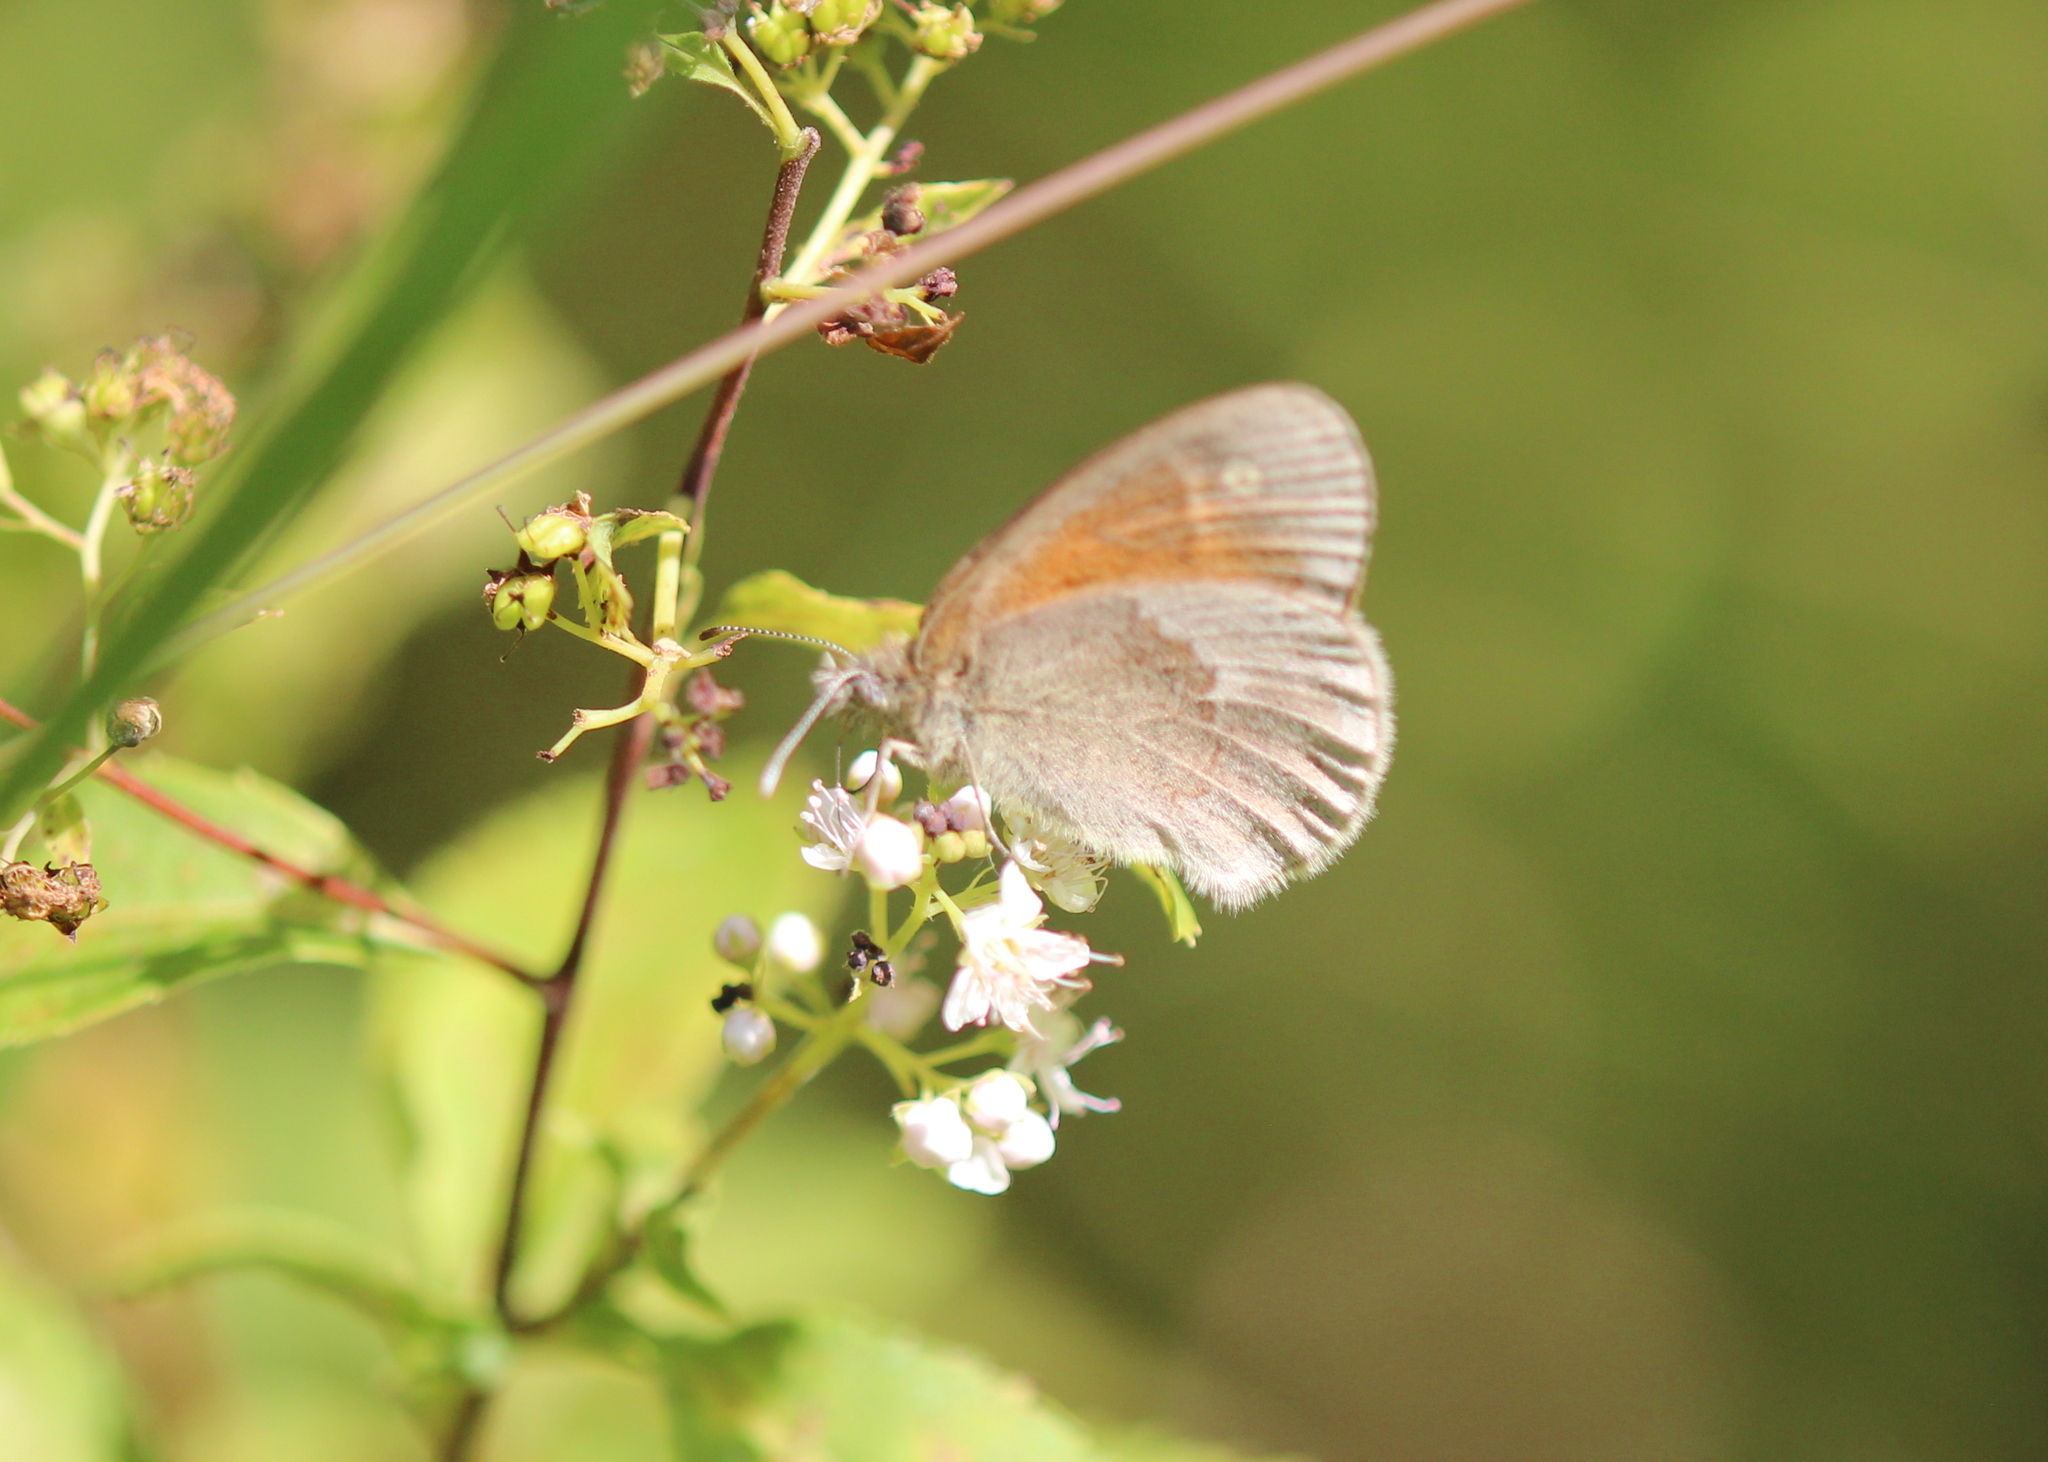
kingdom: Animalia
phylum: Arthropoda
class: Insecta
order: Lepidoptera
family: Nymphalidae
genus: Coenonympha
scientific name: Coenonympha california
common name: Common ringlet
